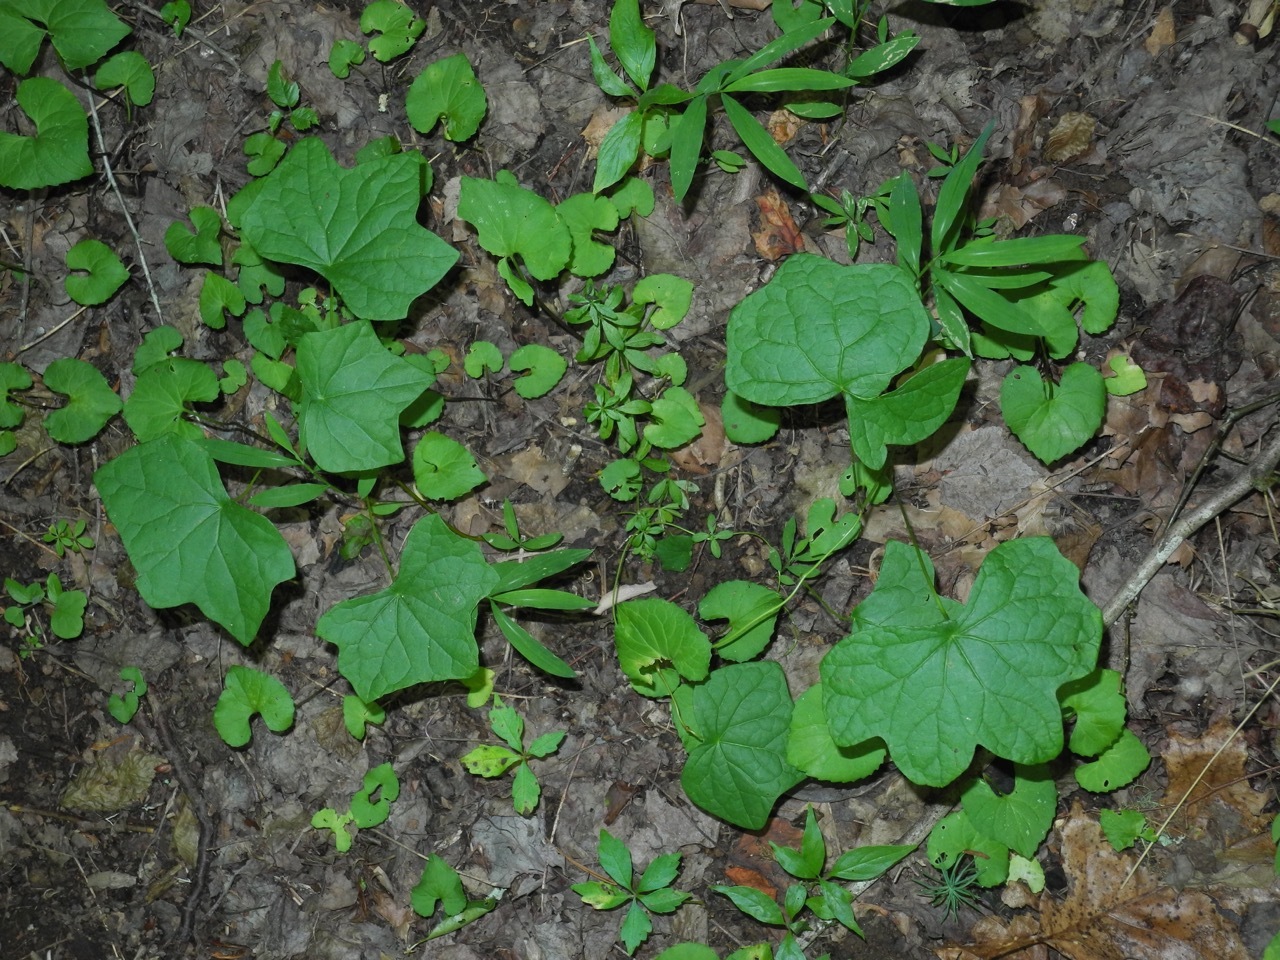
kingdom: Plantae
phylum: Tracheophyta
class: Magnoliopsida
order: Ranunculales
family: Menispermaceae
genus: Menispermum
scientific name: Menispermum canadense
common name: Moonseed
